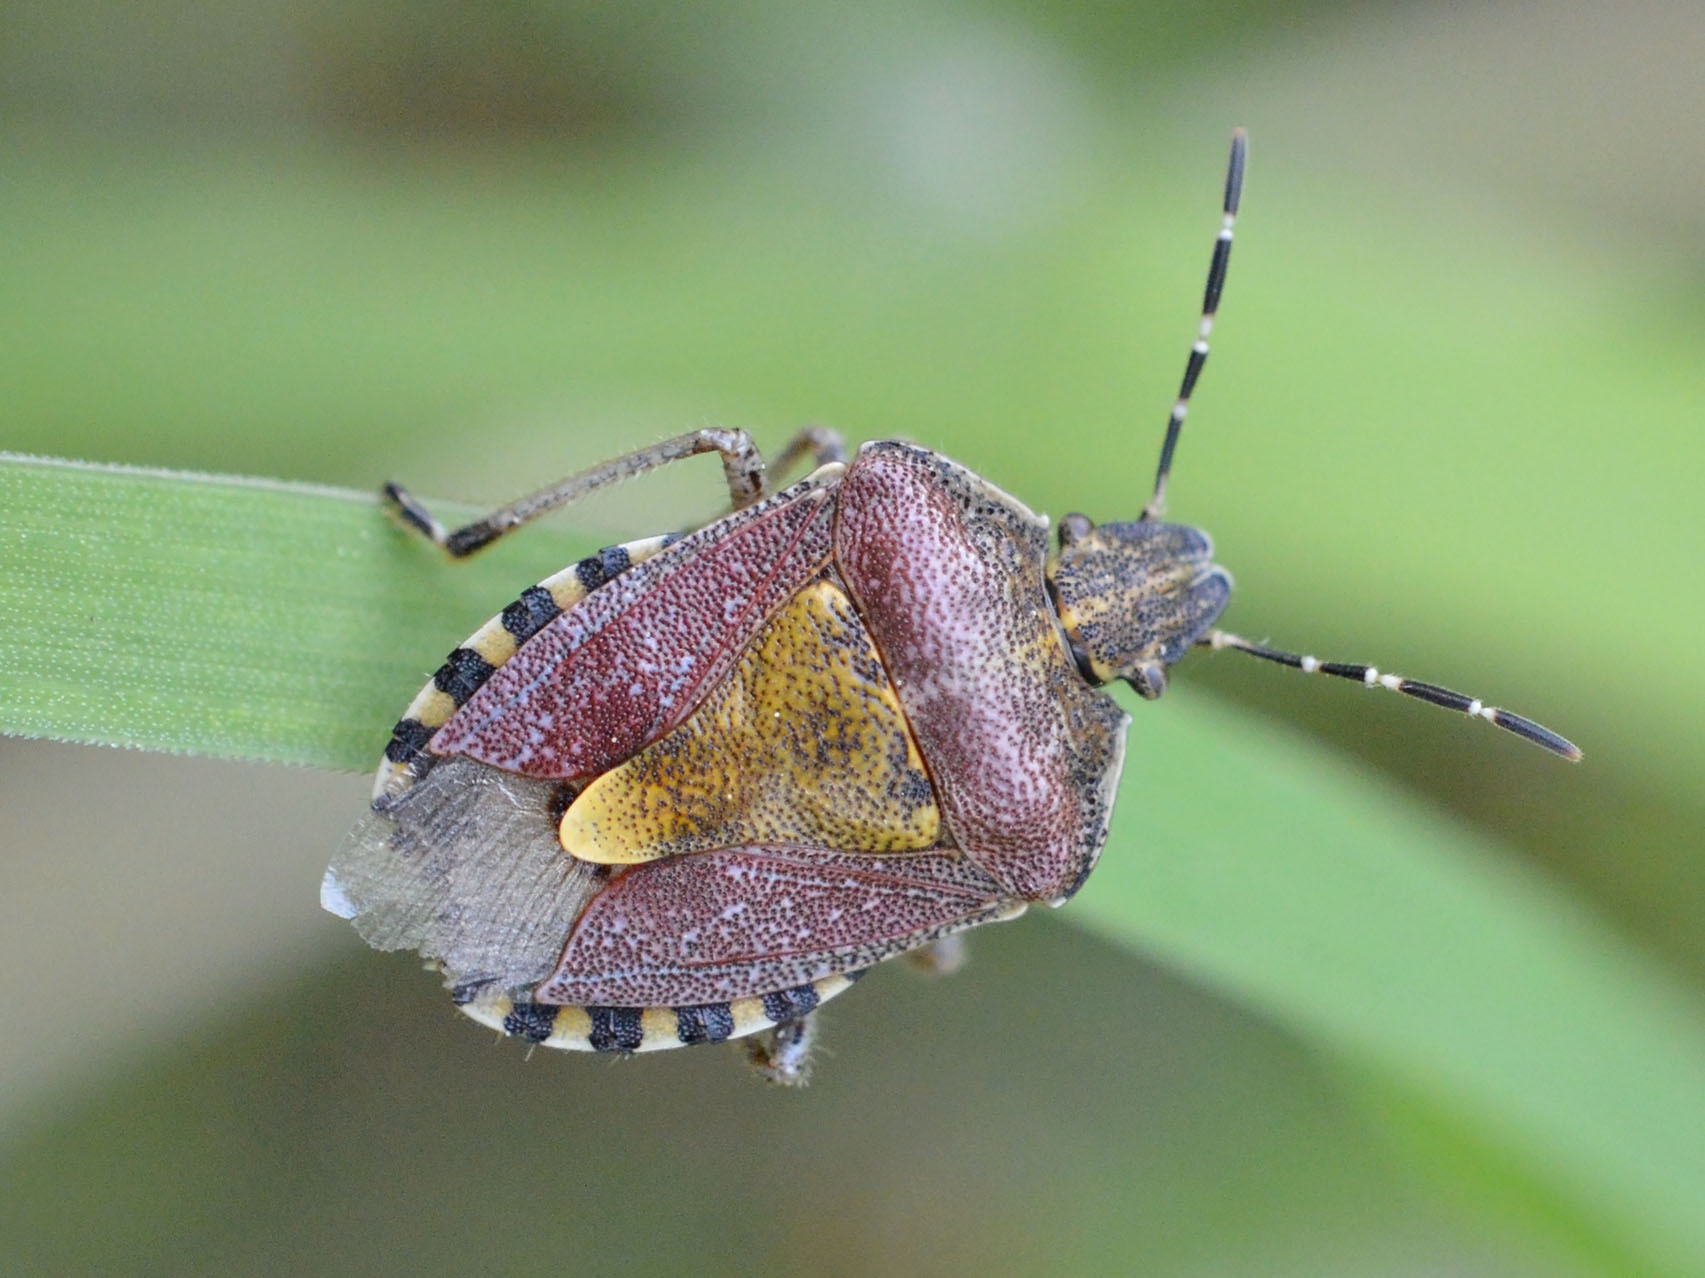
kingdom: Animalia
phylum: Arthropoda
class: Insecta
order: Hemiptera
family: Pentatomidae
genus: Dolycoris
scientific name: Dolycoris baccarum
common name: Sloe bug
